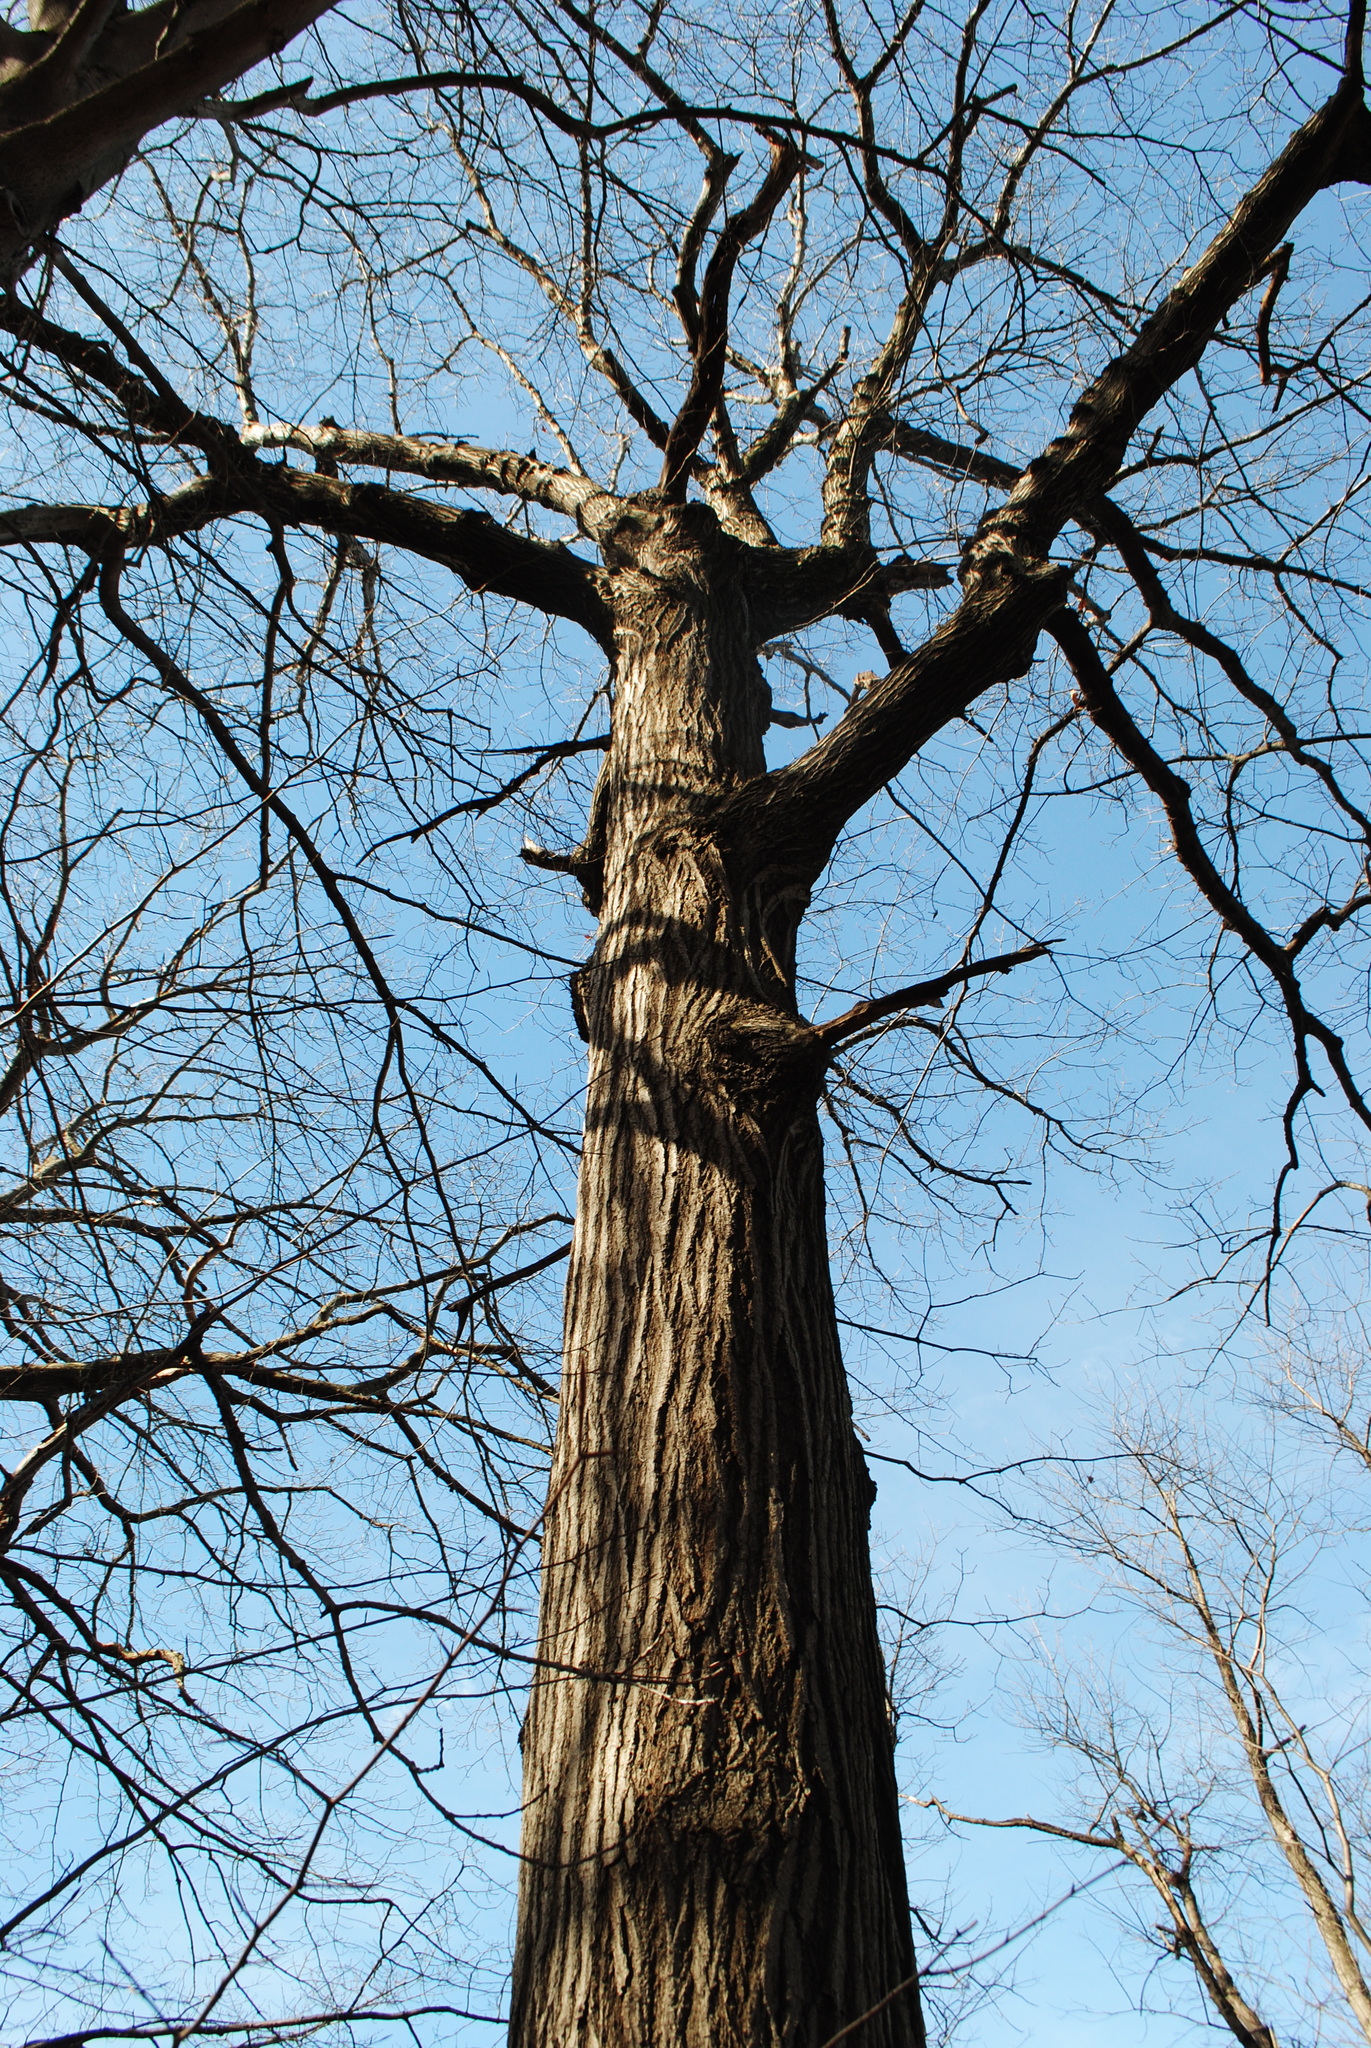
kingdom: Plantae
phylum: Tracheophyta
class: Magnoliopsida
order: Fagales
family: Fagaceae
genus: Quercus
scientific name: Quercus rubra
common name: Red oak
